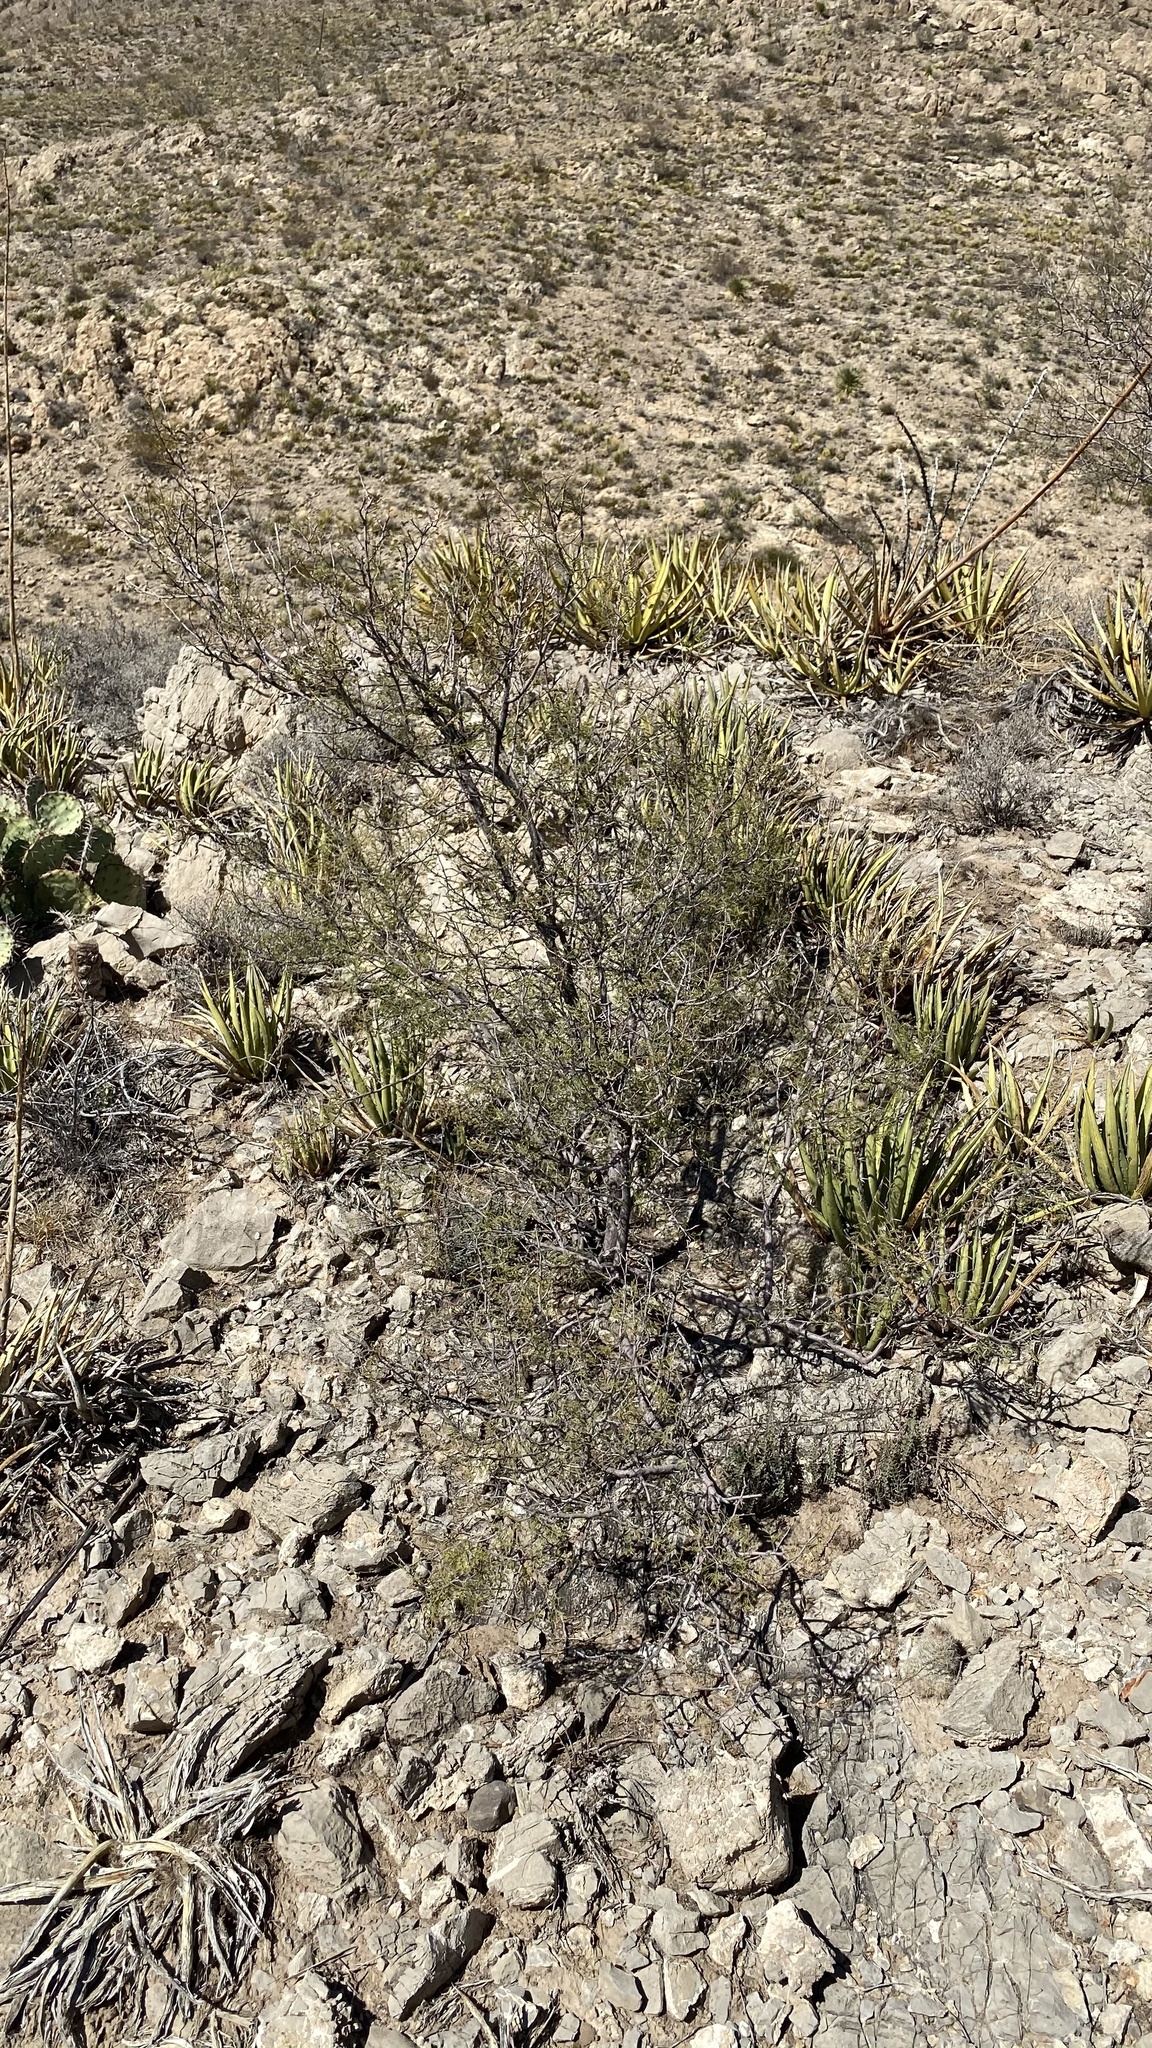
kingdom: Plantae
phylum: Tracheophyta
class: Magnoliopsida
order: Fabales
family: Fabaceae
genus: Vachellia
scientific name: Vachellia constricta
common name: Mescat acacia
